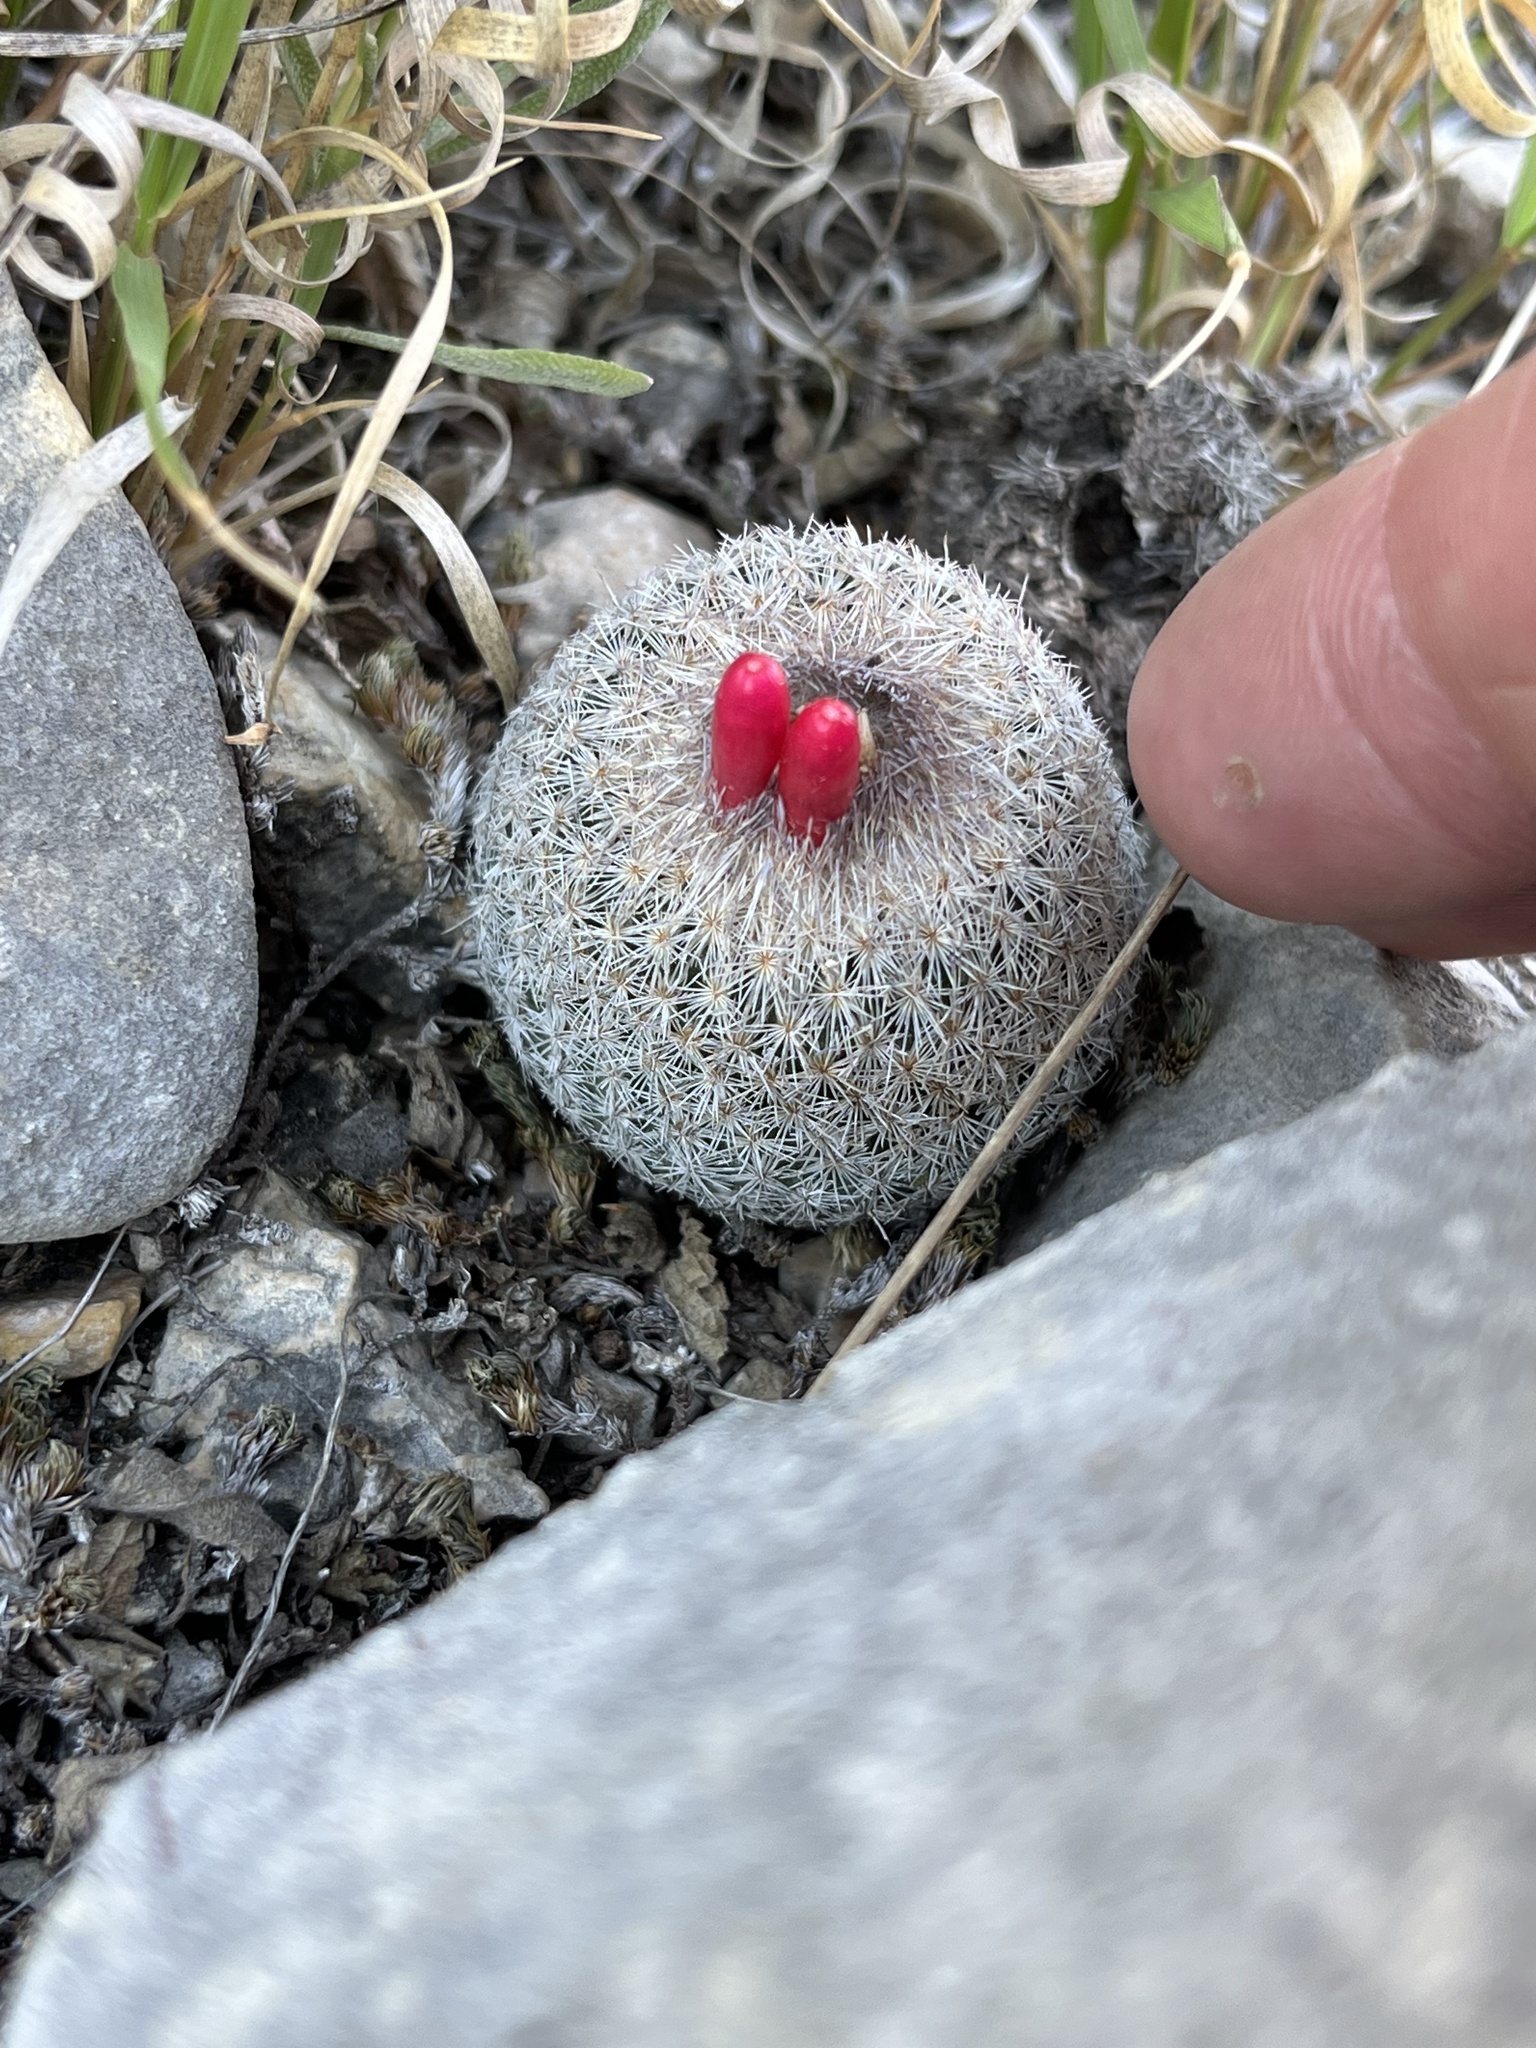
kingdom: Plantae
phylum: Tracheophyta
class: Magnoliopsida
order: Caryophyllales
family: Cactaceae
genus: Epithelantha
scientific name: Epithelantha micromeris
